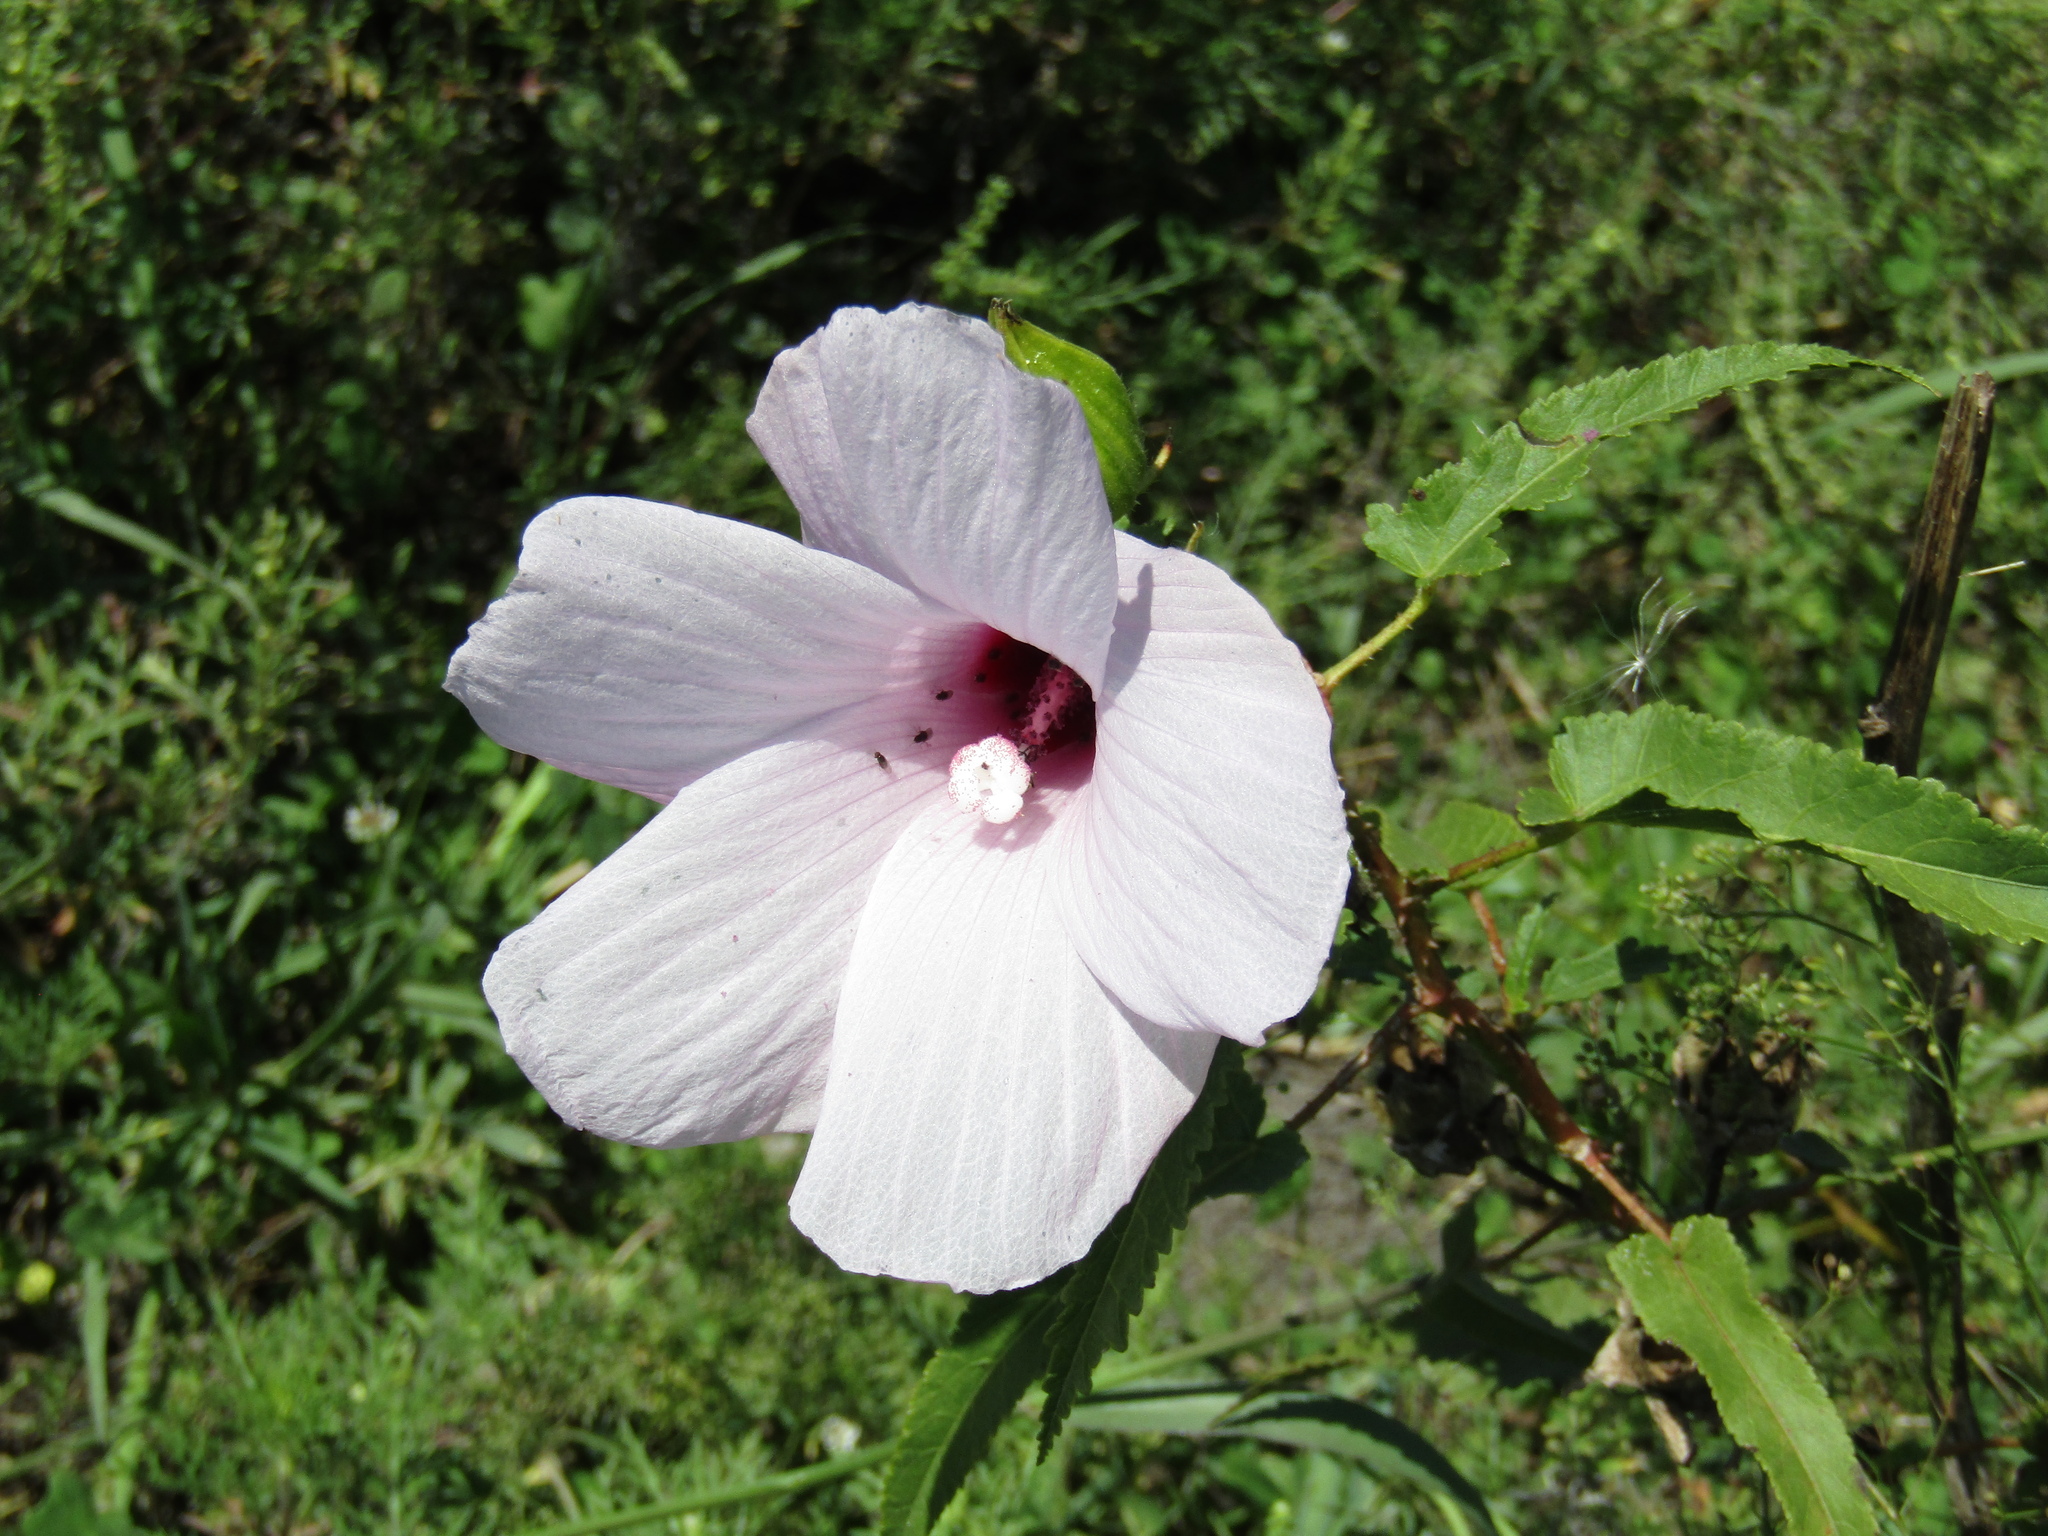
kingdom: Plantae
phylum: Tracheophyta
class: Magnoliopsida
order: Malvales
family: Malvaceae
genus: Hibiscus
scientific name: Hibiscus striatus
